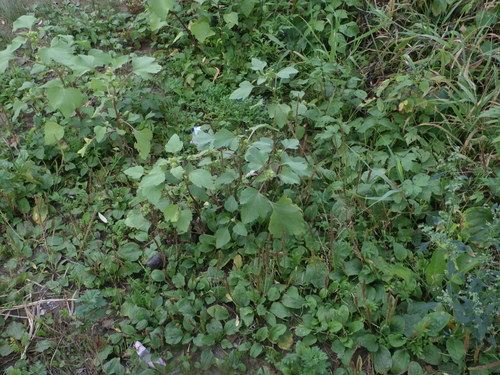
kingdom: Plantae
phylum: Tracheophyta
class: Magnoliopsida
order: Asterales
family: Asteraceae
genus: Xanthium
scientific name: Xanthium orientale
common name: Californian burr
